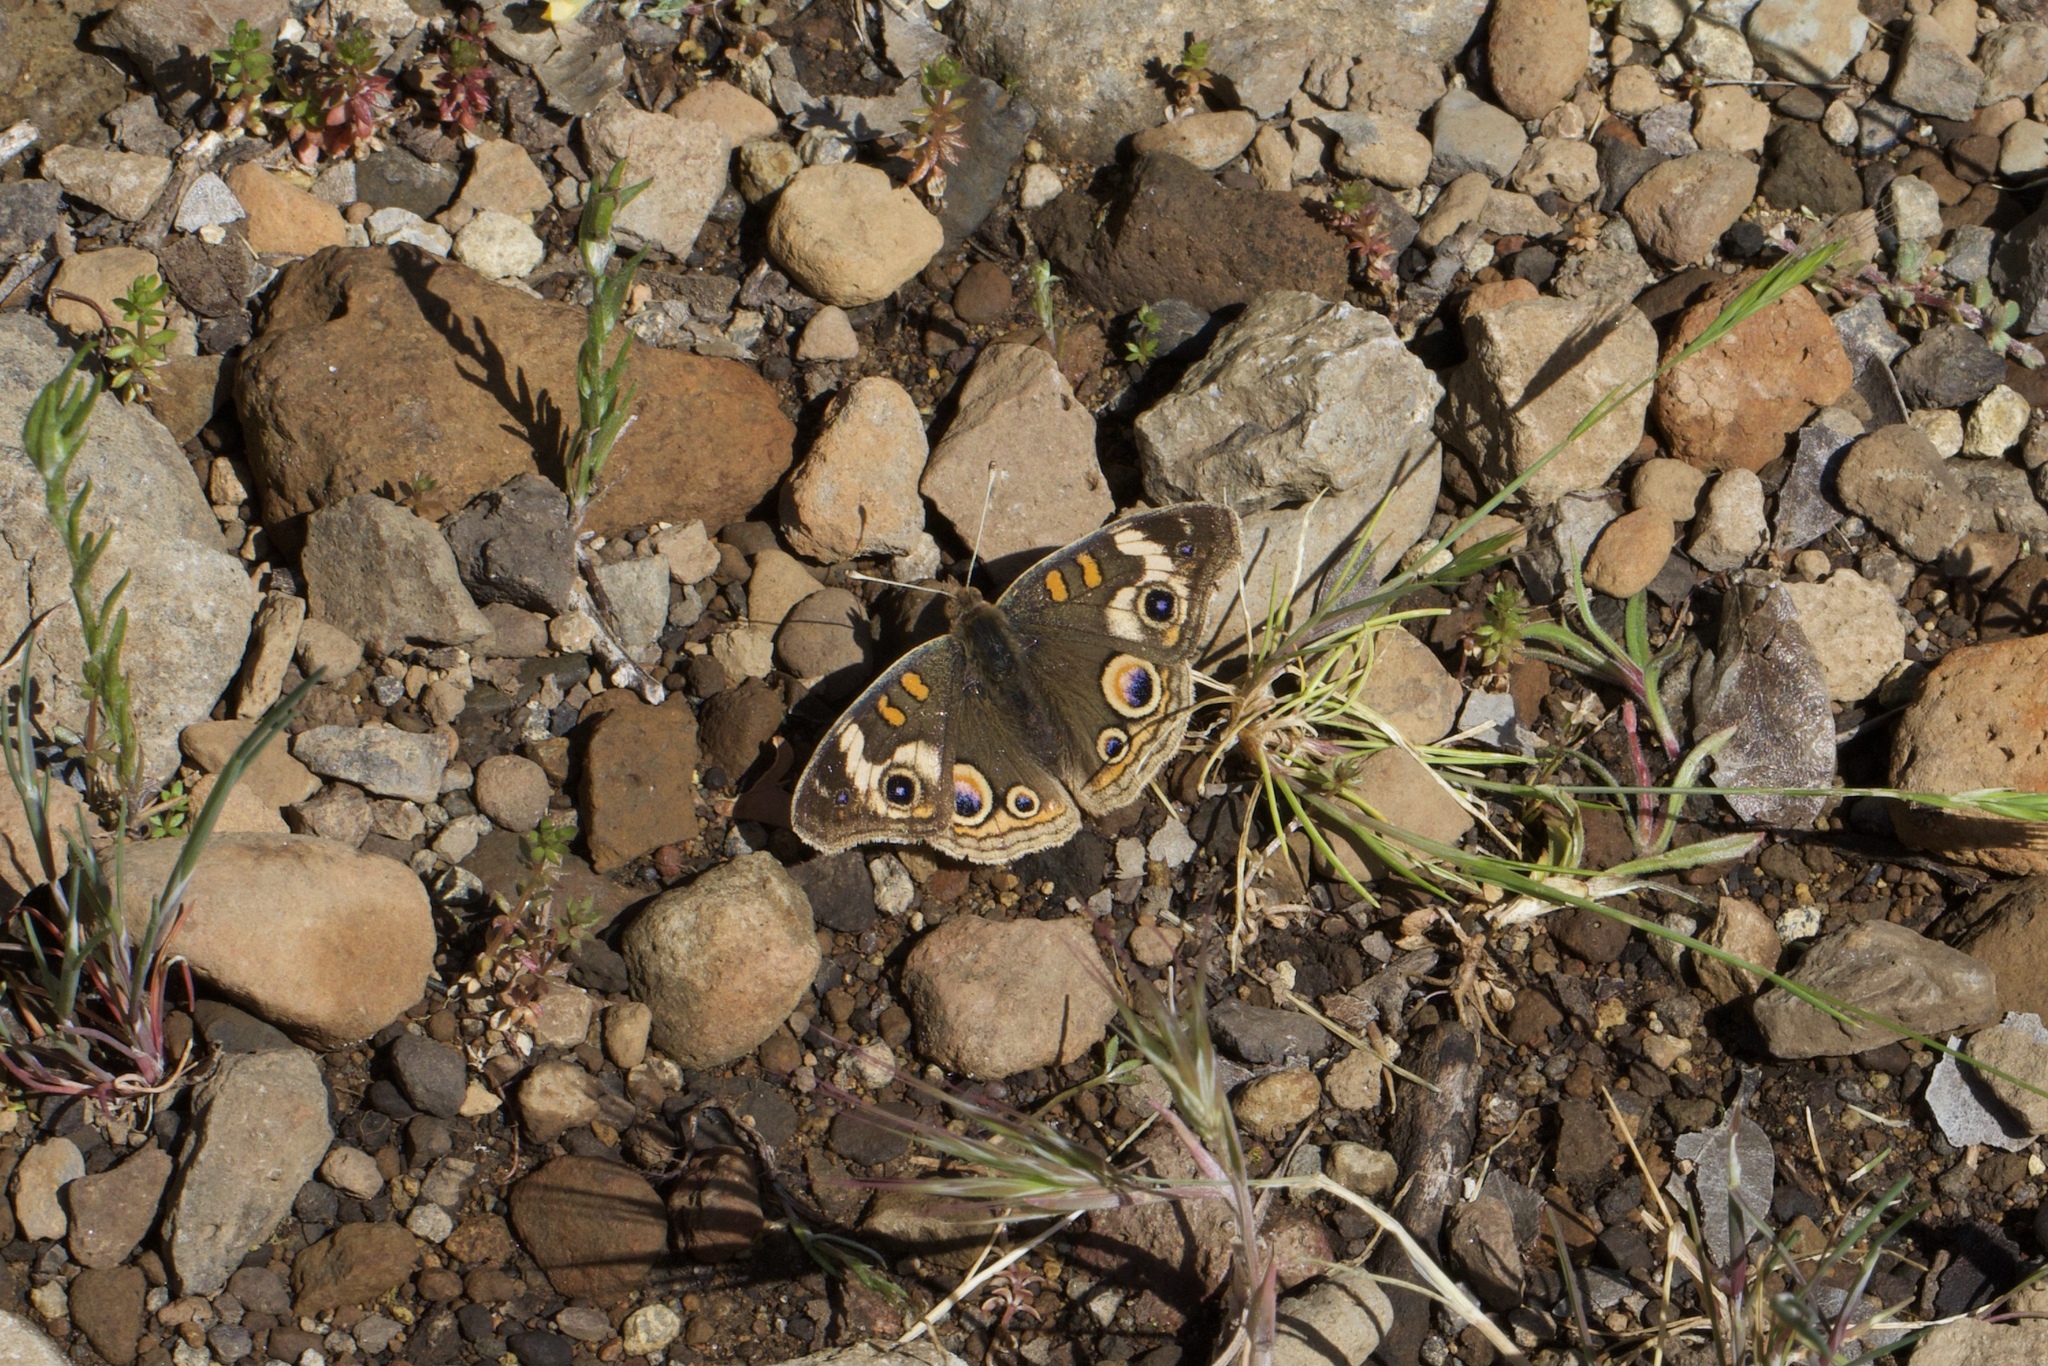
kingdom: Animalia
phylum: Arthropoda
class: Insecta
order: Lepidoptera
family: Nymphalidae
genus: Junonia
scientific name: Junonia grisea
